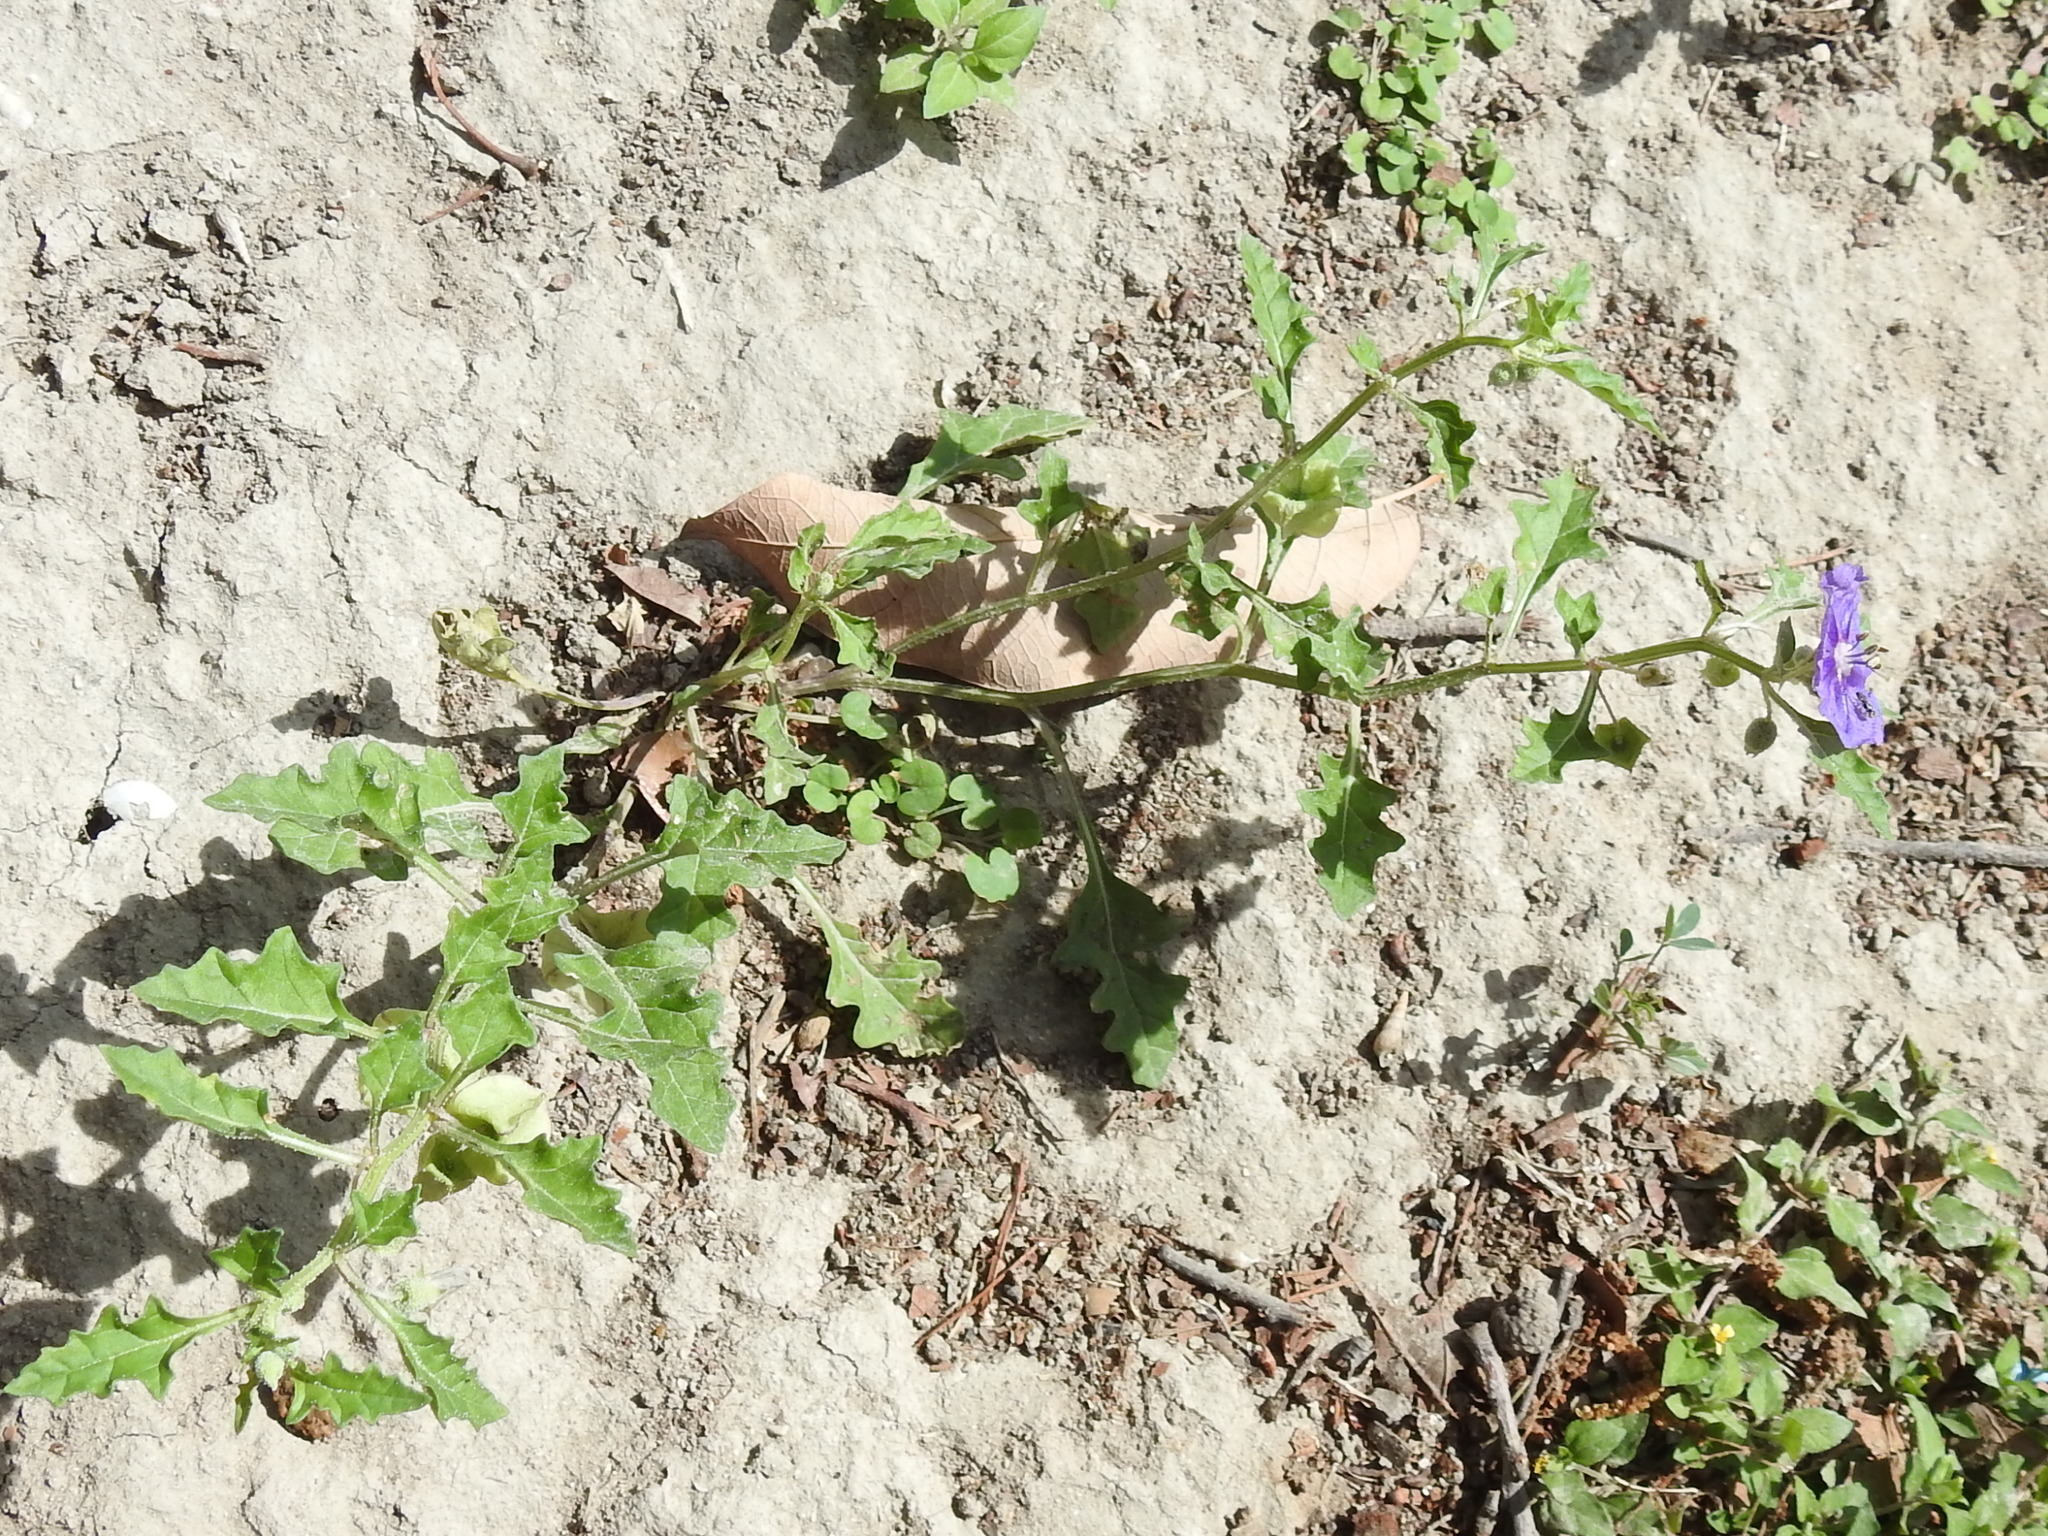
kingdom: Plantae
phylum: Tracheophyta
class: Magnoliopsida
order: Solanales
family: Solanaceae
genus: Quincula
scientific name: Quincula lobata
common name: Purple-ground-cherry
